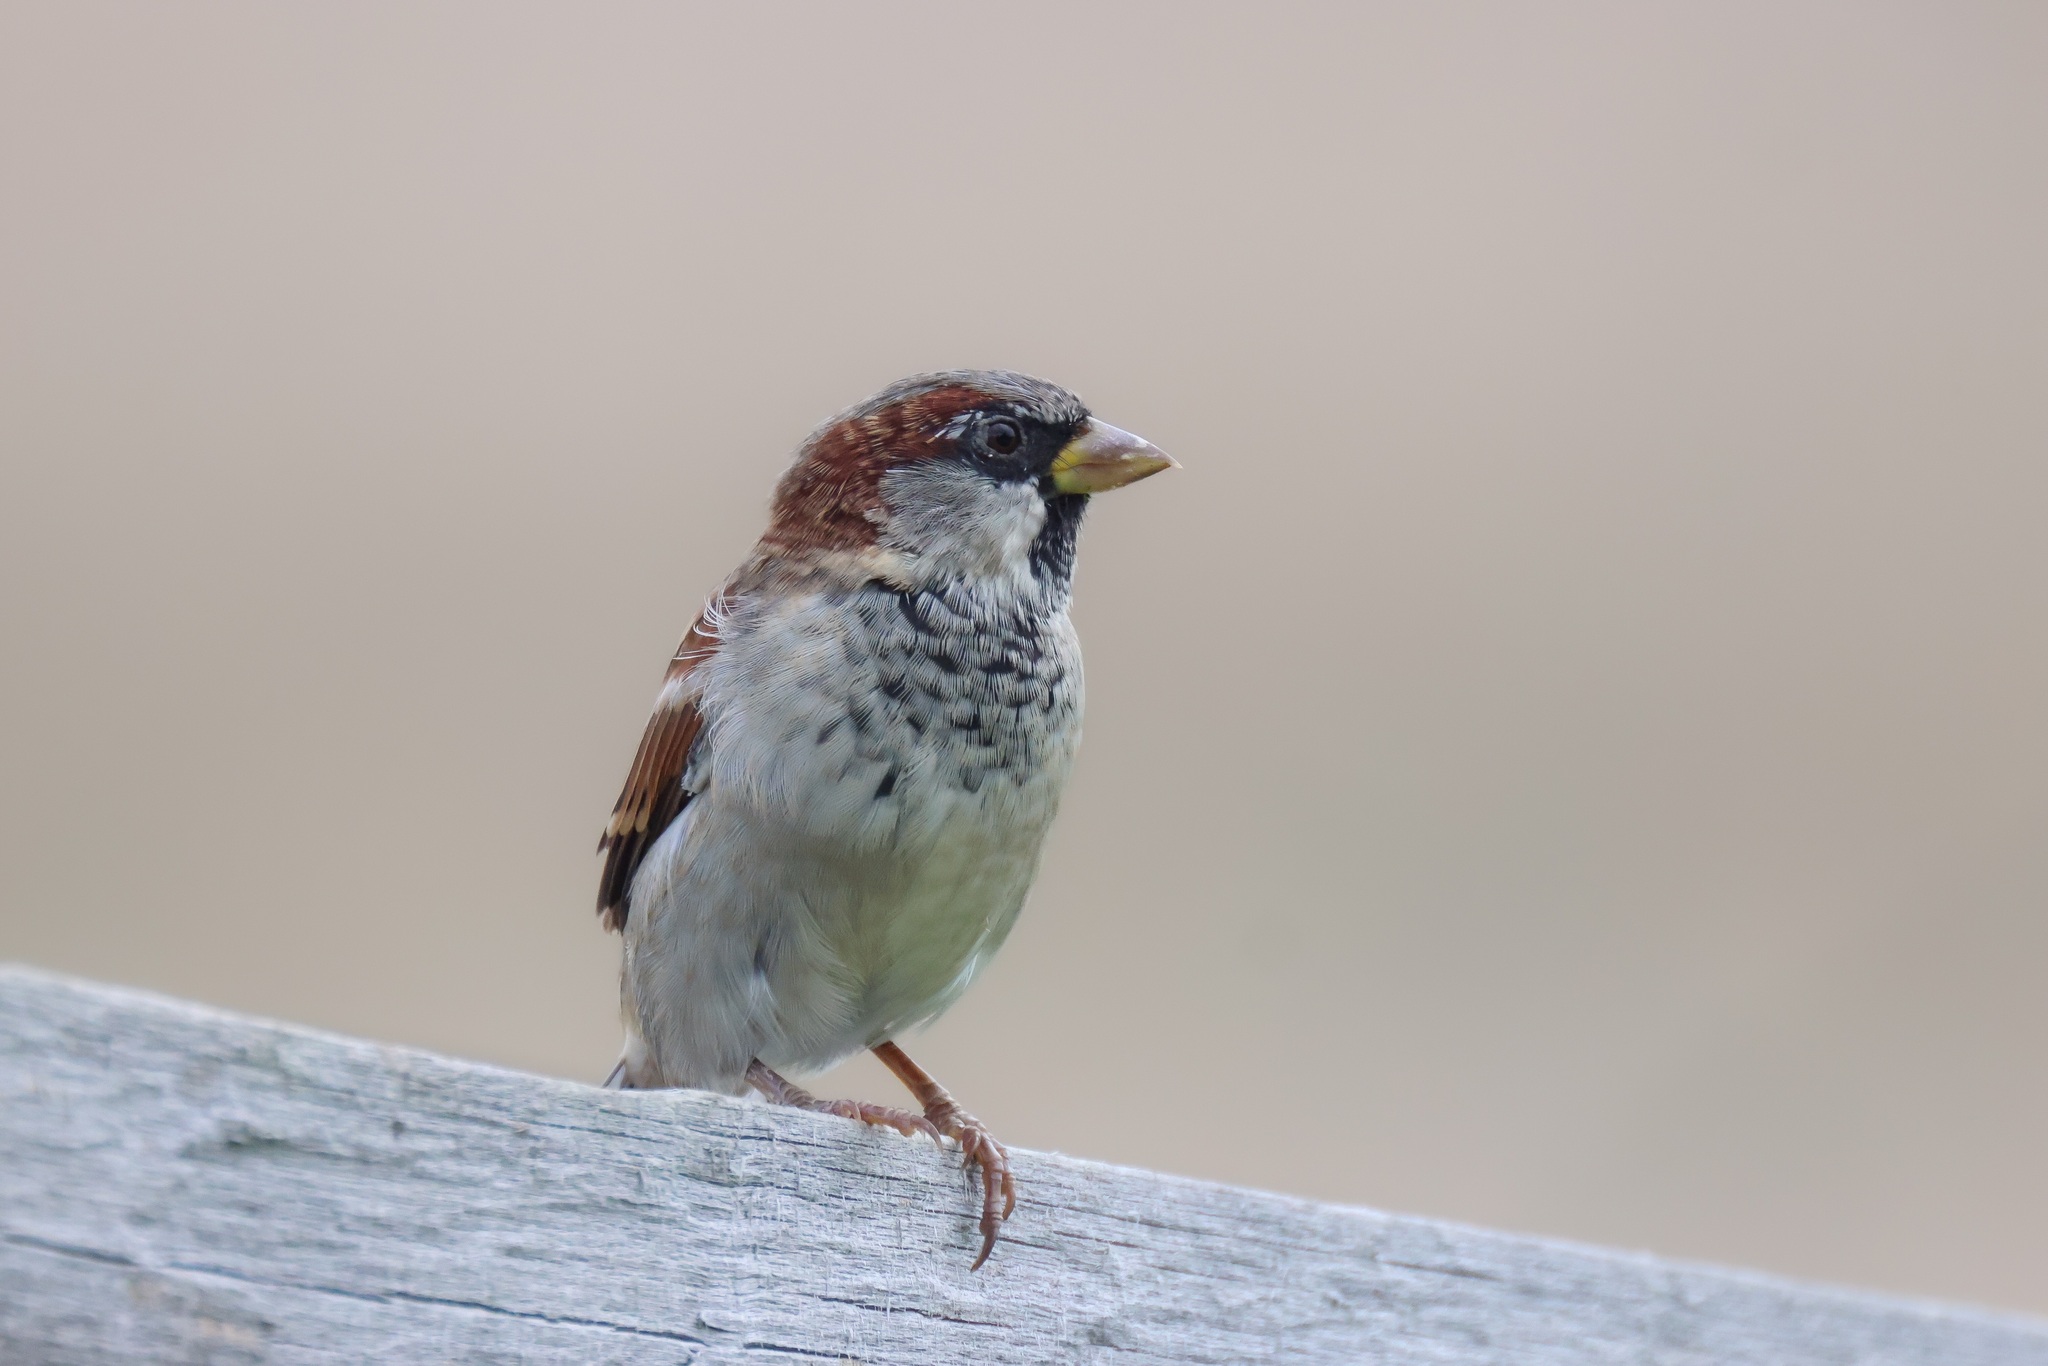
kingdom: Animalia
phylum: Chordata
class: Aves
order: Passeriformes
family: Passeridae
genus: Passer
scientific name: Passer domesticus
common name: House sparrow
